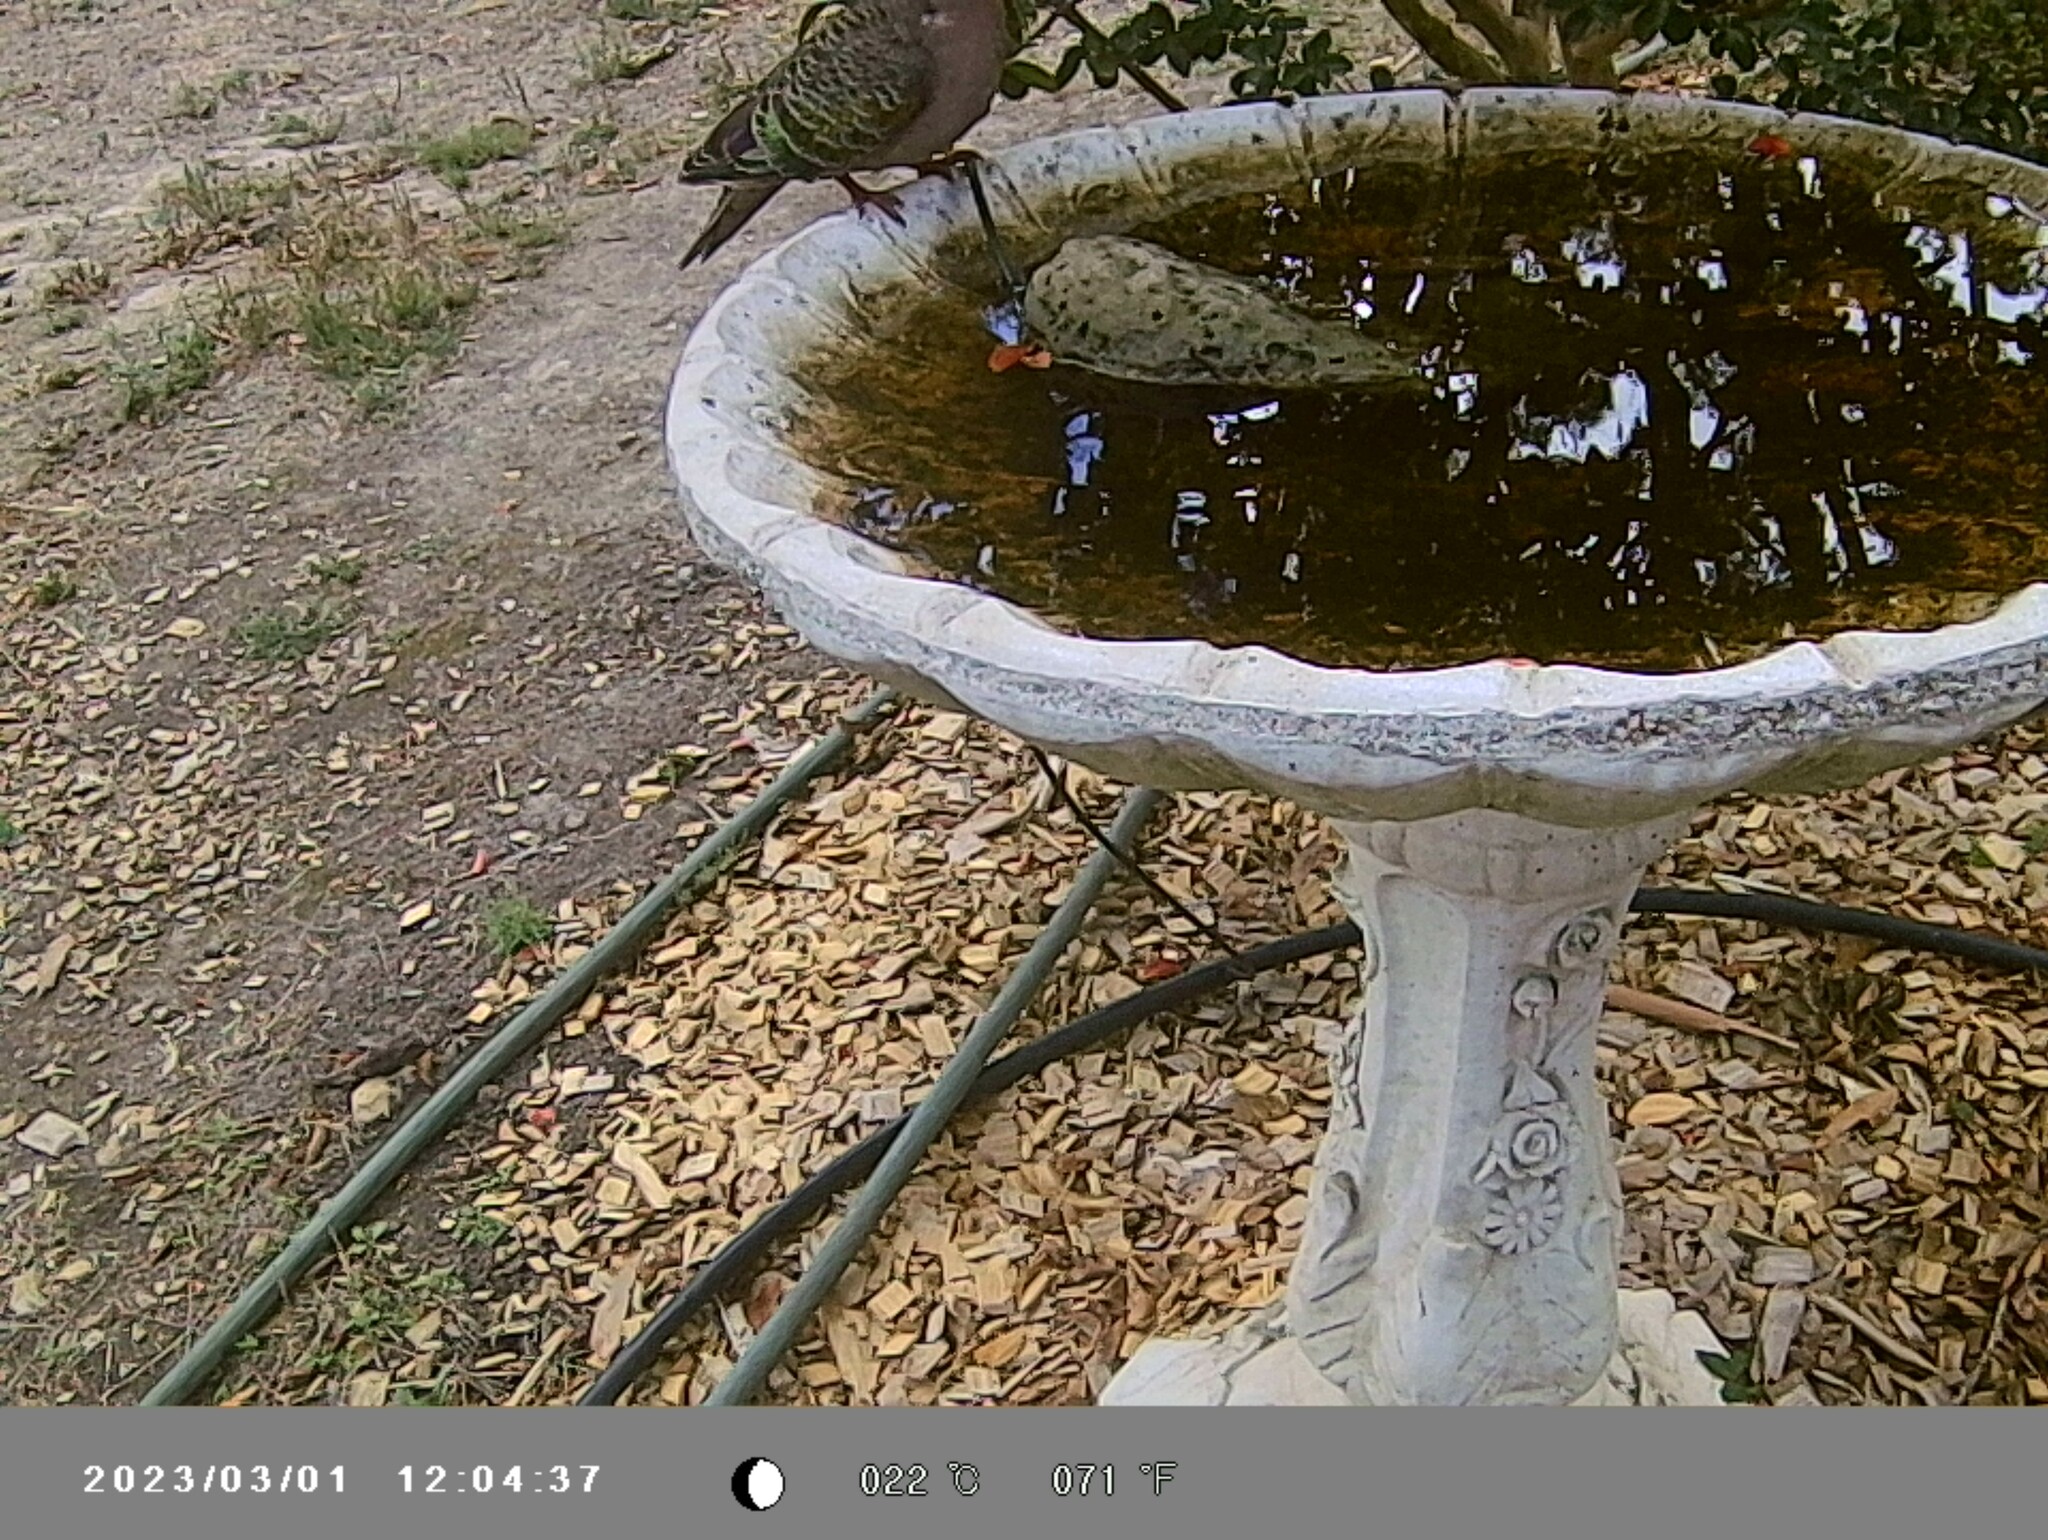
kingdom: Animalia
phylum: Chordata
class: Aves
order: Columbiformes
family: Columbidae
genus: Phaps
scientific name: Phaps chalcoptera
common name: Common bronzewing
